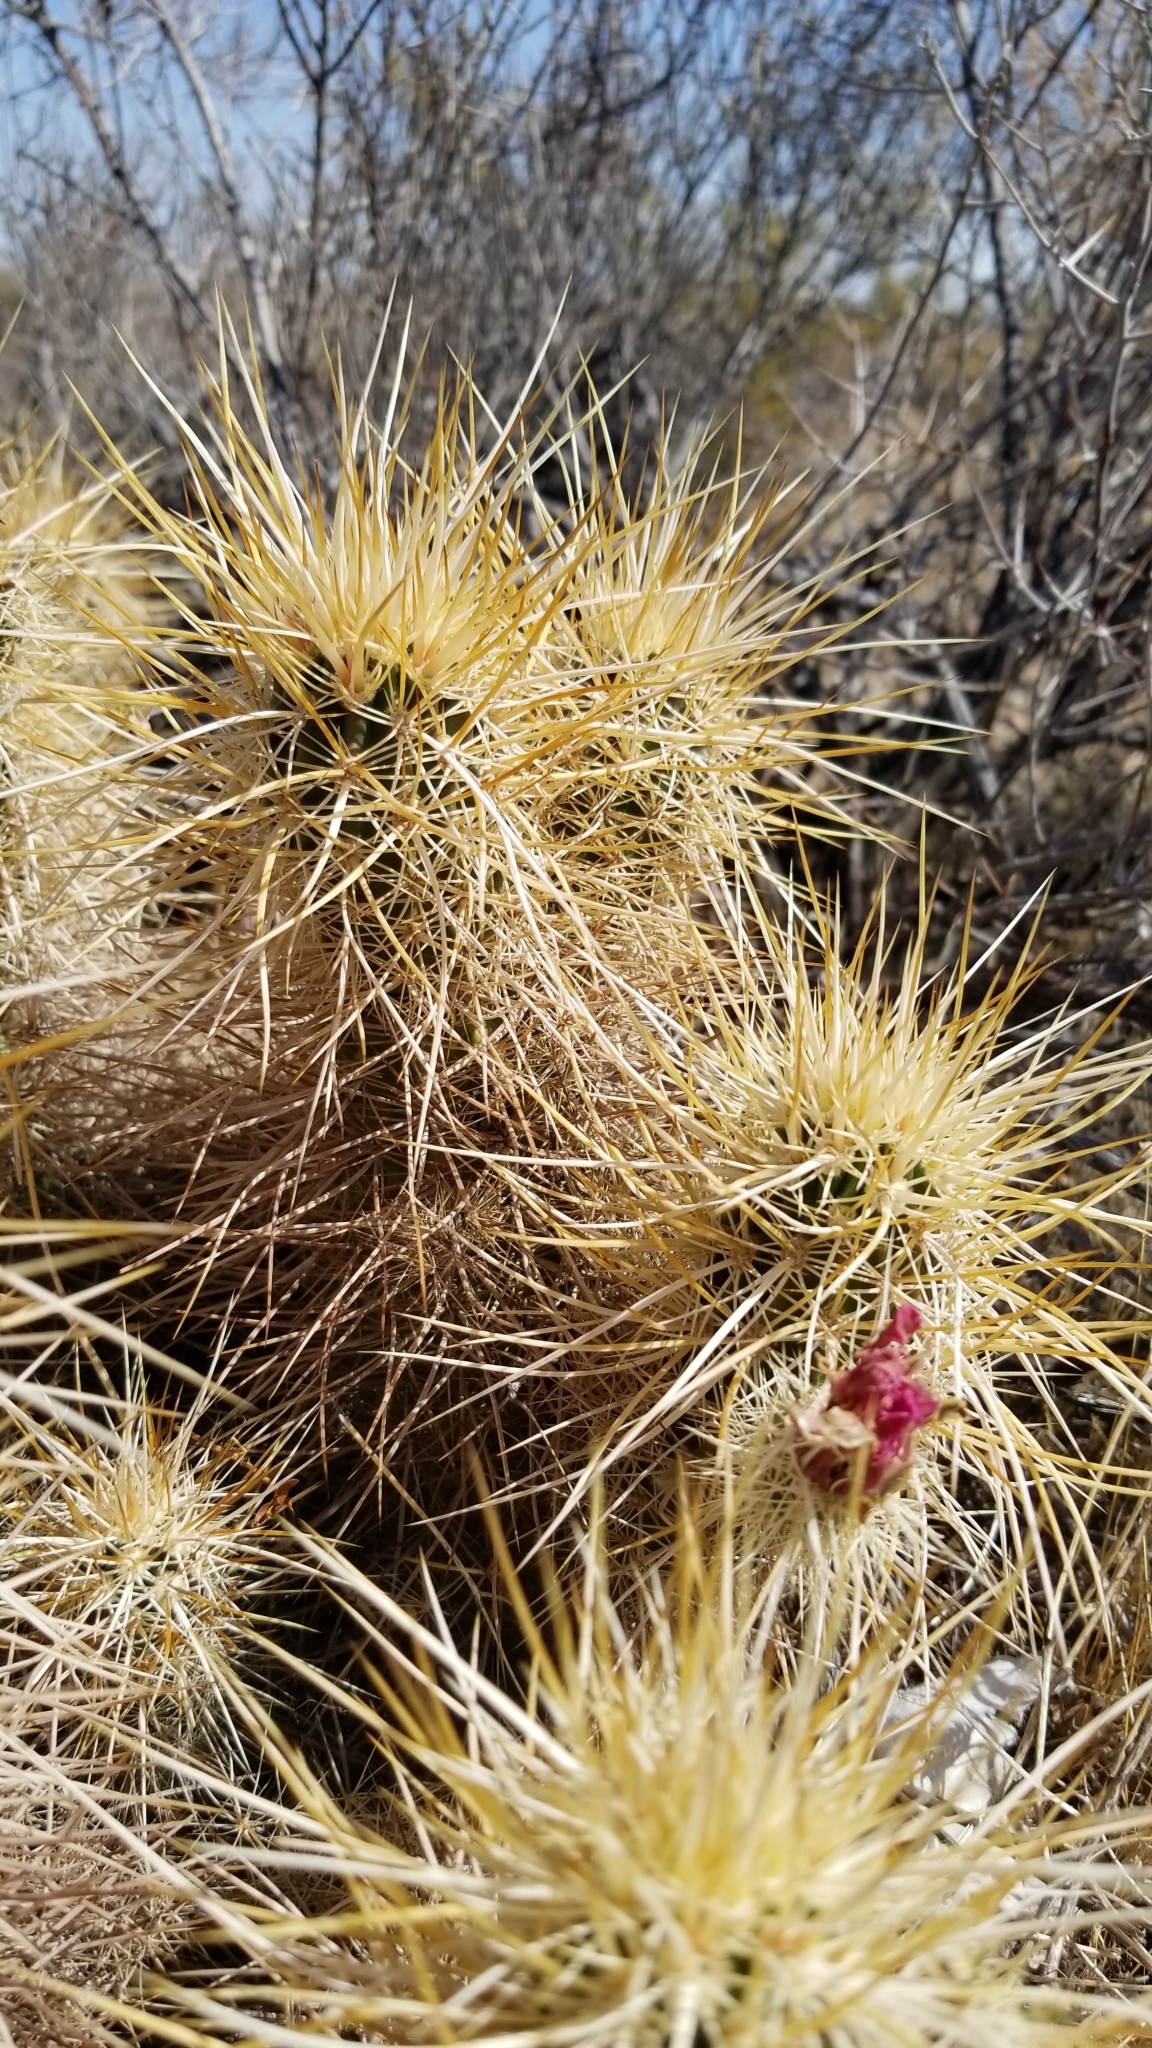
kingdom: Plantae
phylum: Tracheophyta
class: Magnoliopsida
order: Caryophyllales
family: Cactaceae
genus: Echinocereus
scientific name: Echinocereus engelmannii
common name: Engelmann's hedgehog cactus
